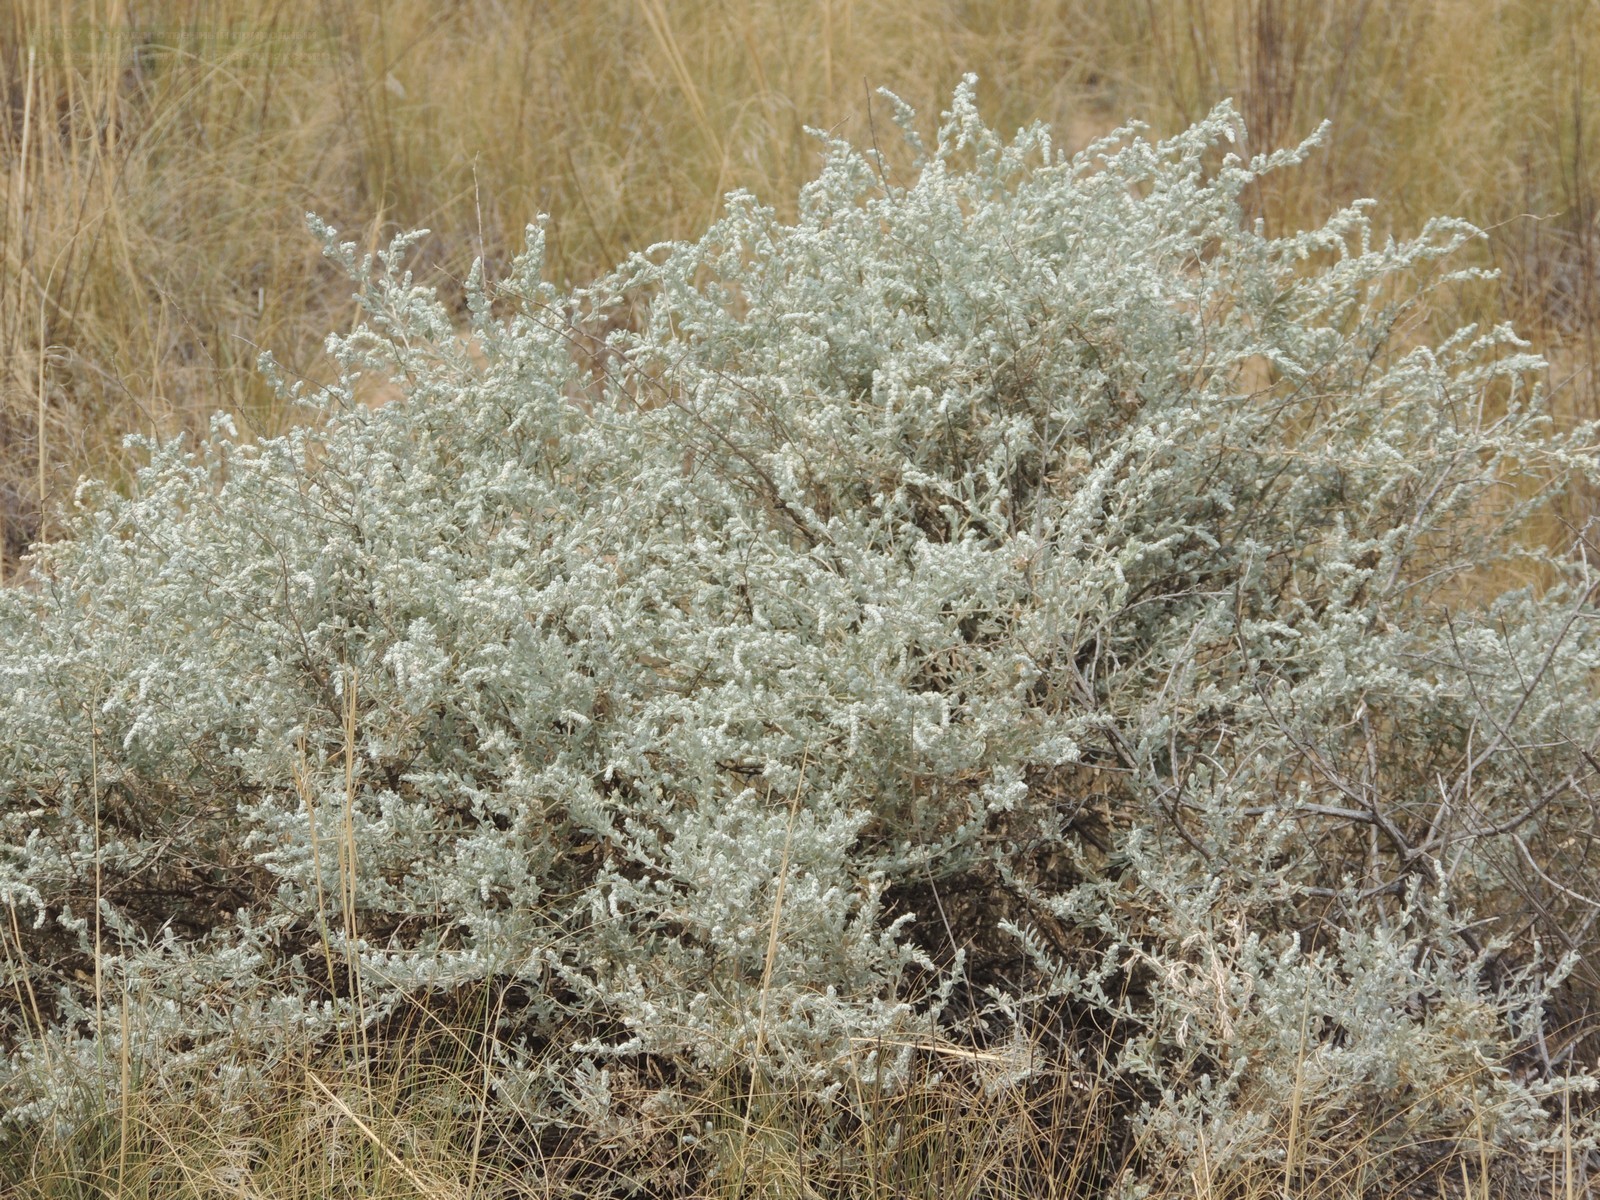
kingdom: Plantae
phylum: Tracheophyta
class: Magnoliopsida
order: Caryophyllales
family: Amaranthaceae
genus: Krascheninnikovia
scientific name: Krascheninnikovia ceratoides
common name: Pamirian winterfat
